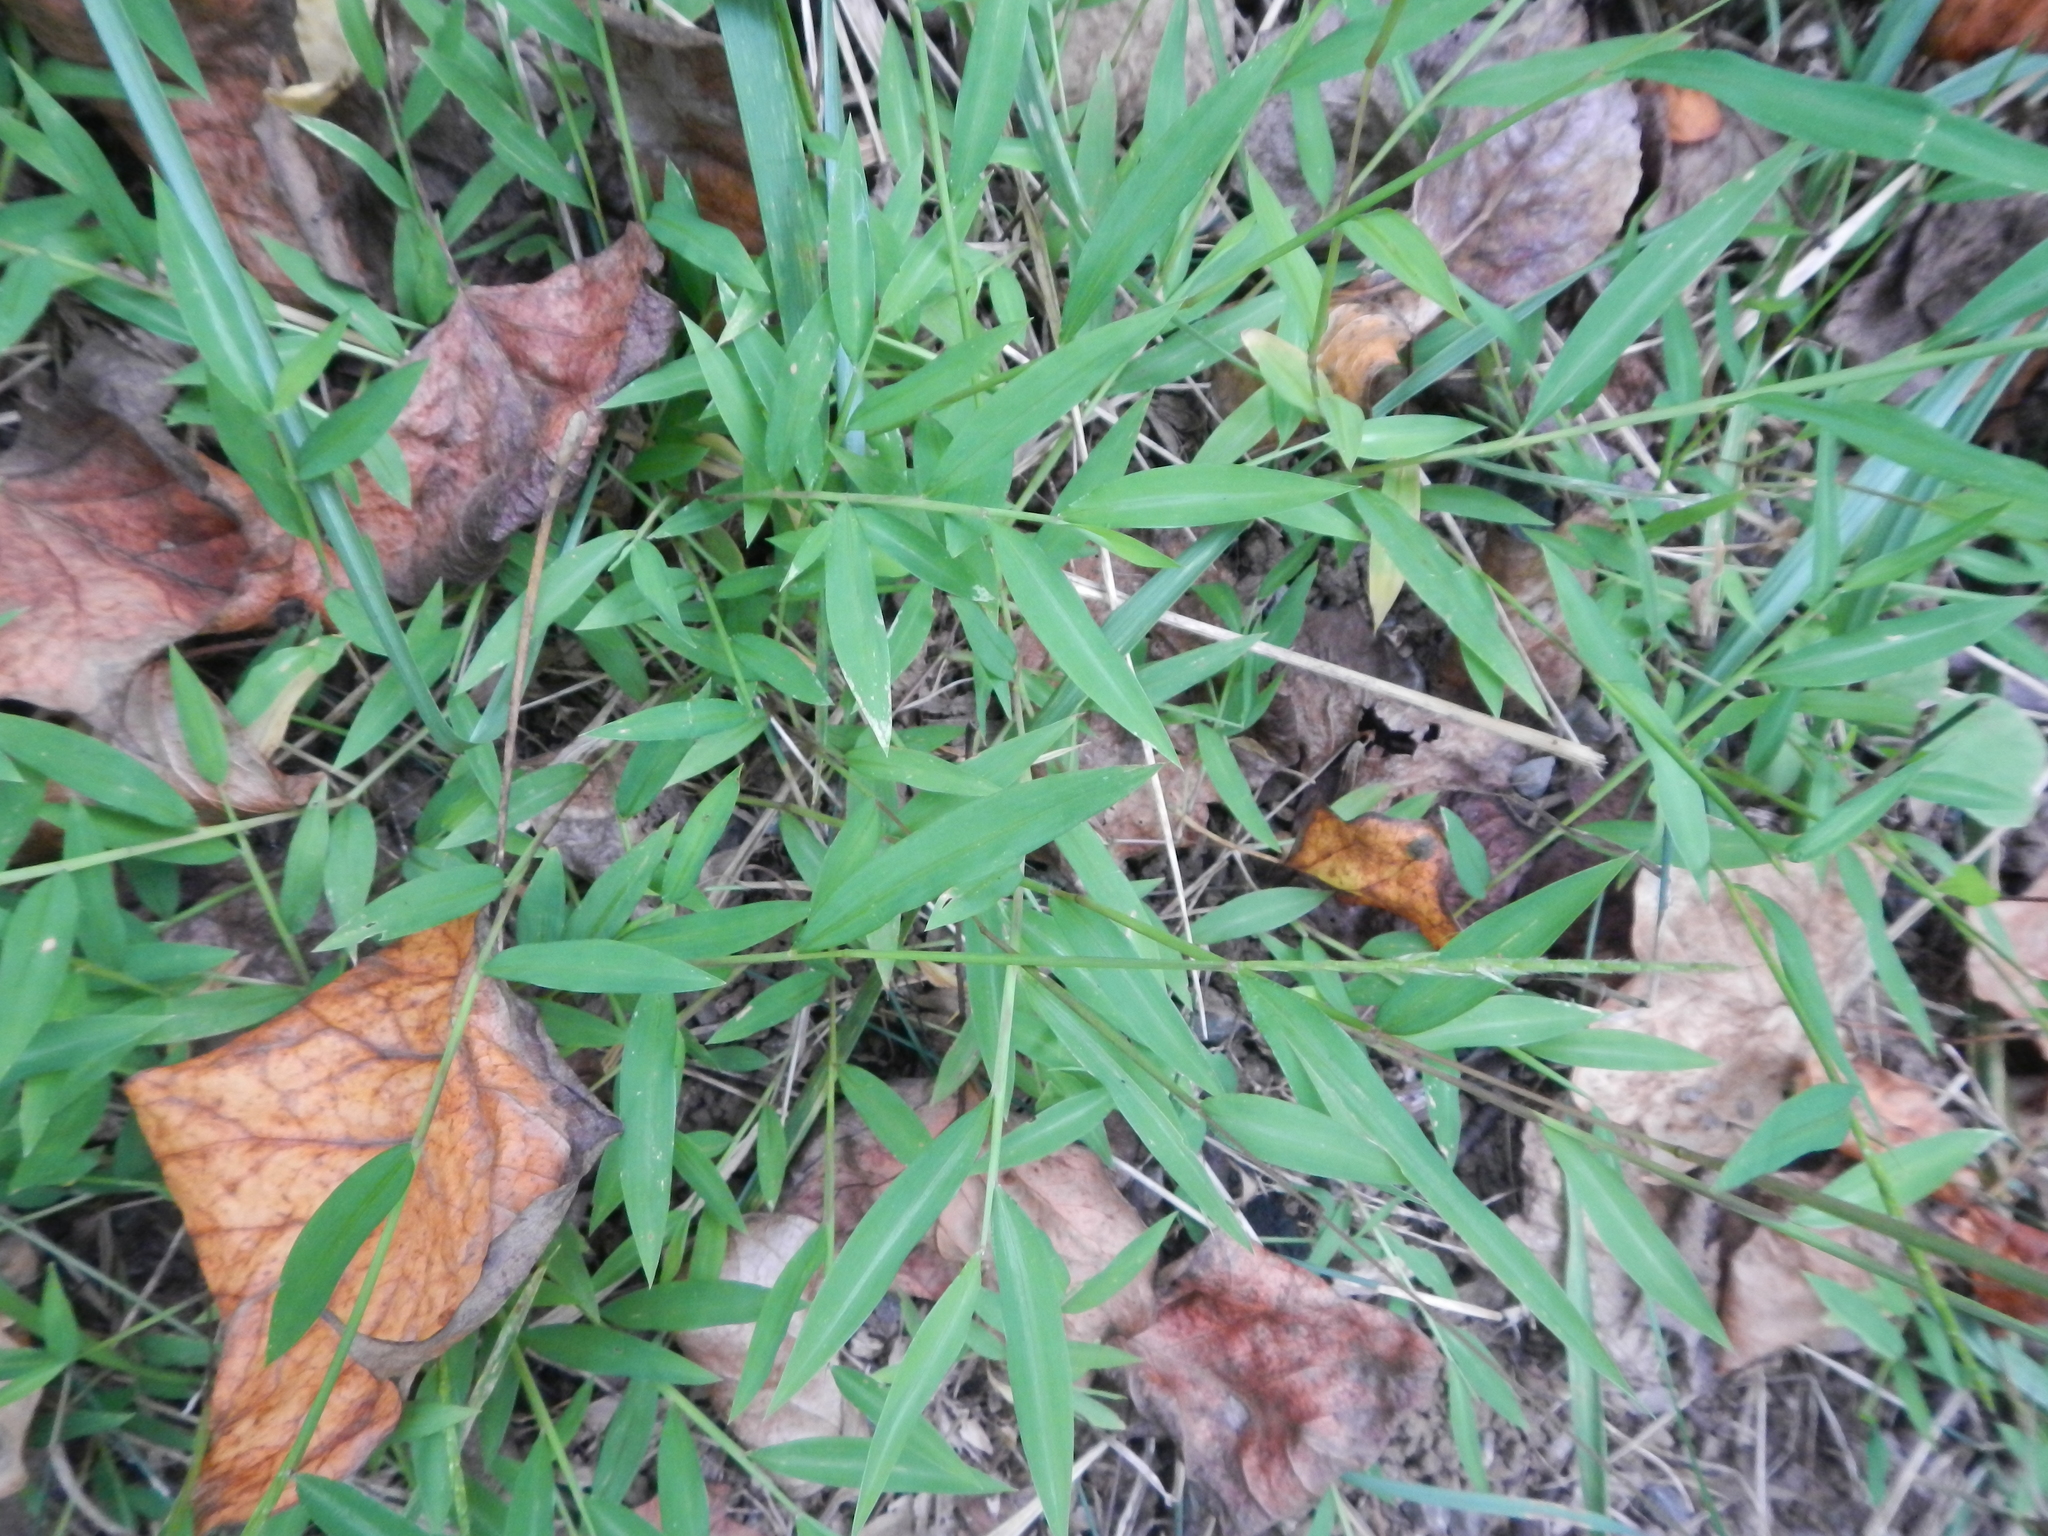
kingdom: Plantae
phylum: Tracheophyta
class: Liliopsida
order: Poales
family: Poaceae
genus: Microstegium
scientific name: Microstegium vimineum
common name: Japanese stiltgrass
